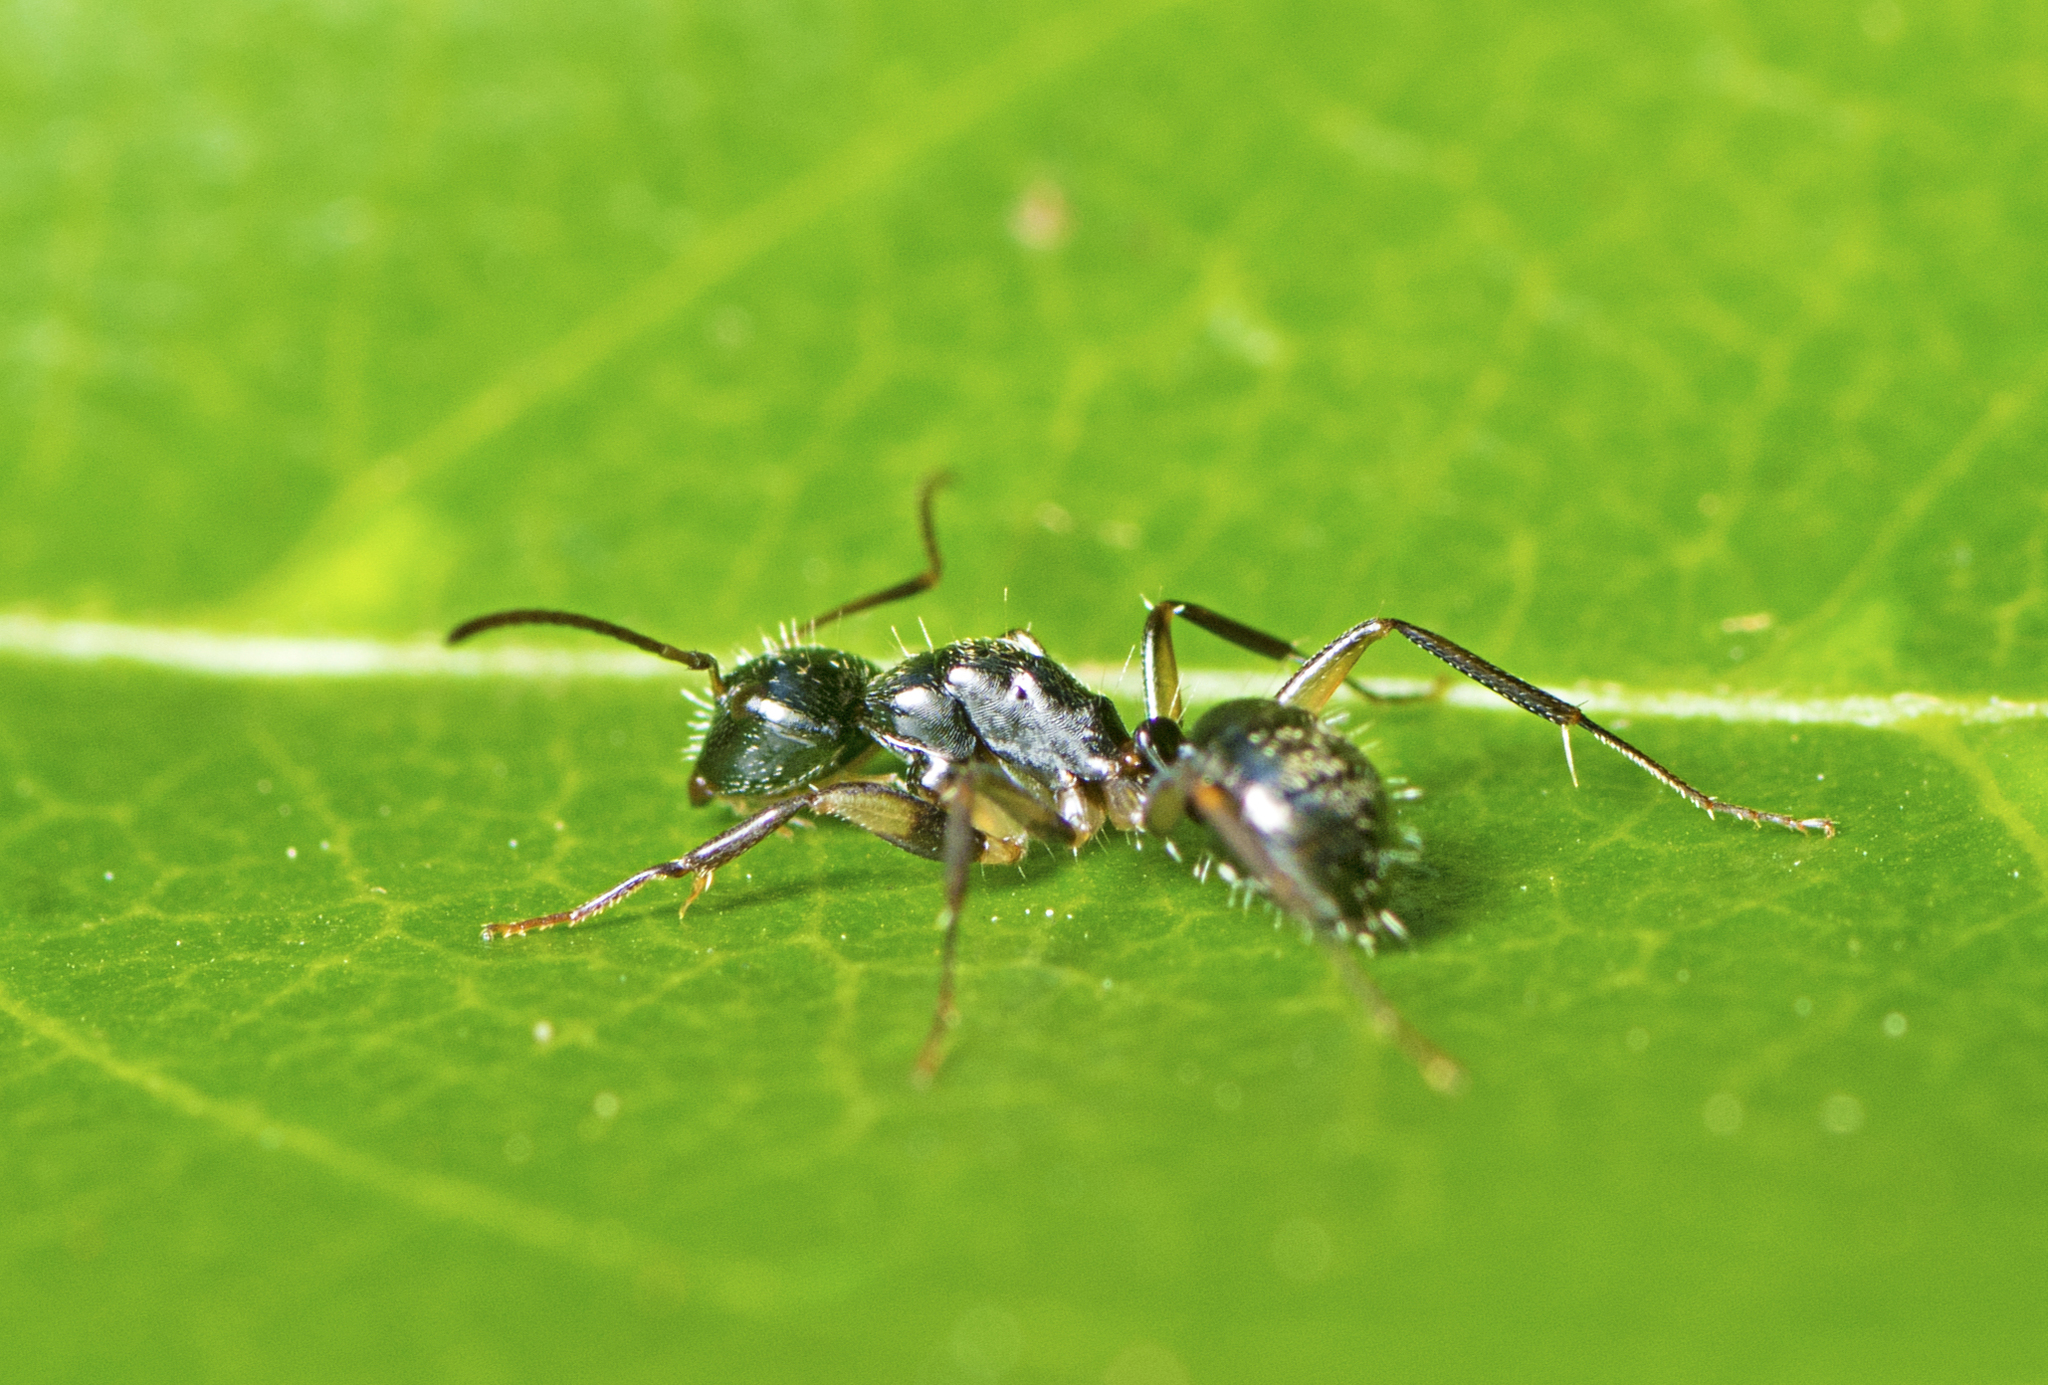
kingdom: Animalia
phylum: Arthropoda
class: Insecta
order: Hymenoptera
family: Formicidae
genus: Camponotus
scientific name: Camponotus froggatti
